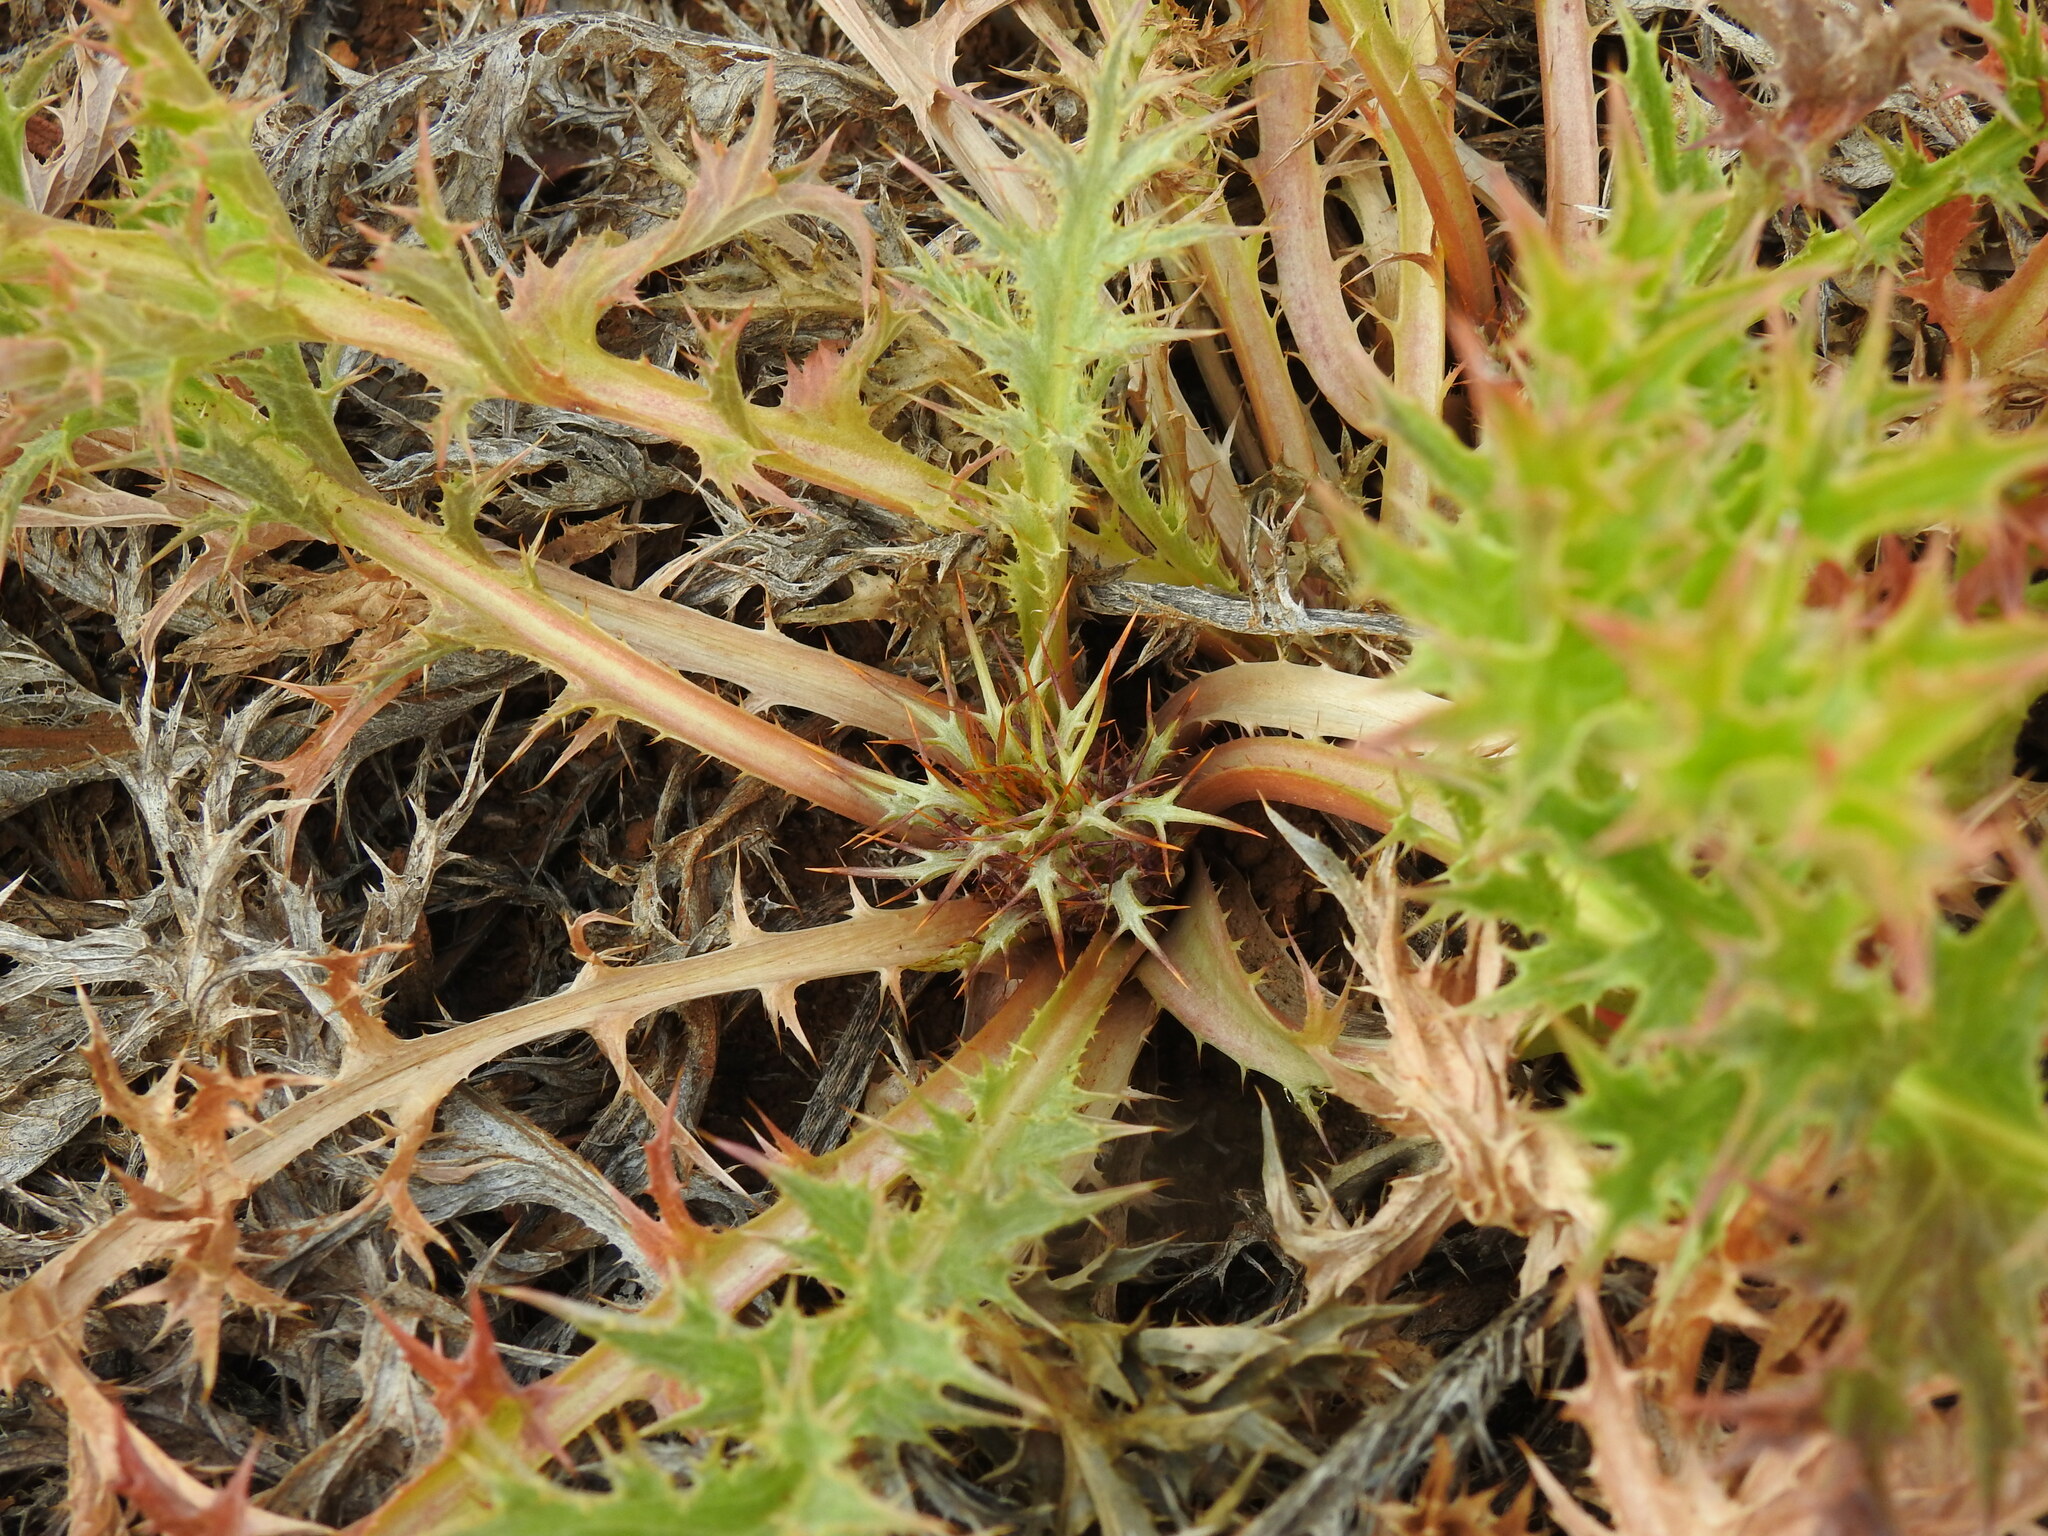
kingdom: Plantae
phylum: Tracheophyta
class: Magnoliopsida
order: Asterales
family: Asteraceae
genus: Chamaeleon
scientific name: Chamaeleon gummifer
